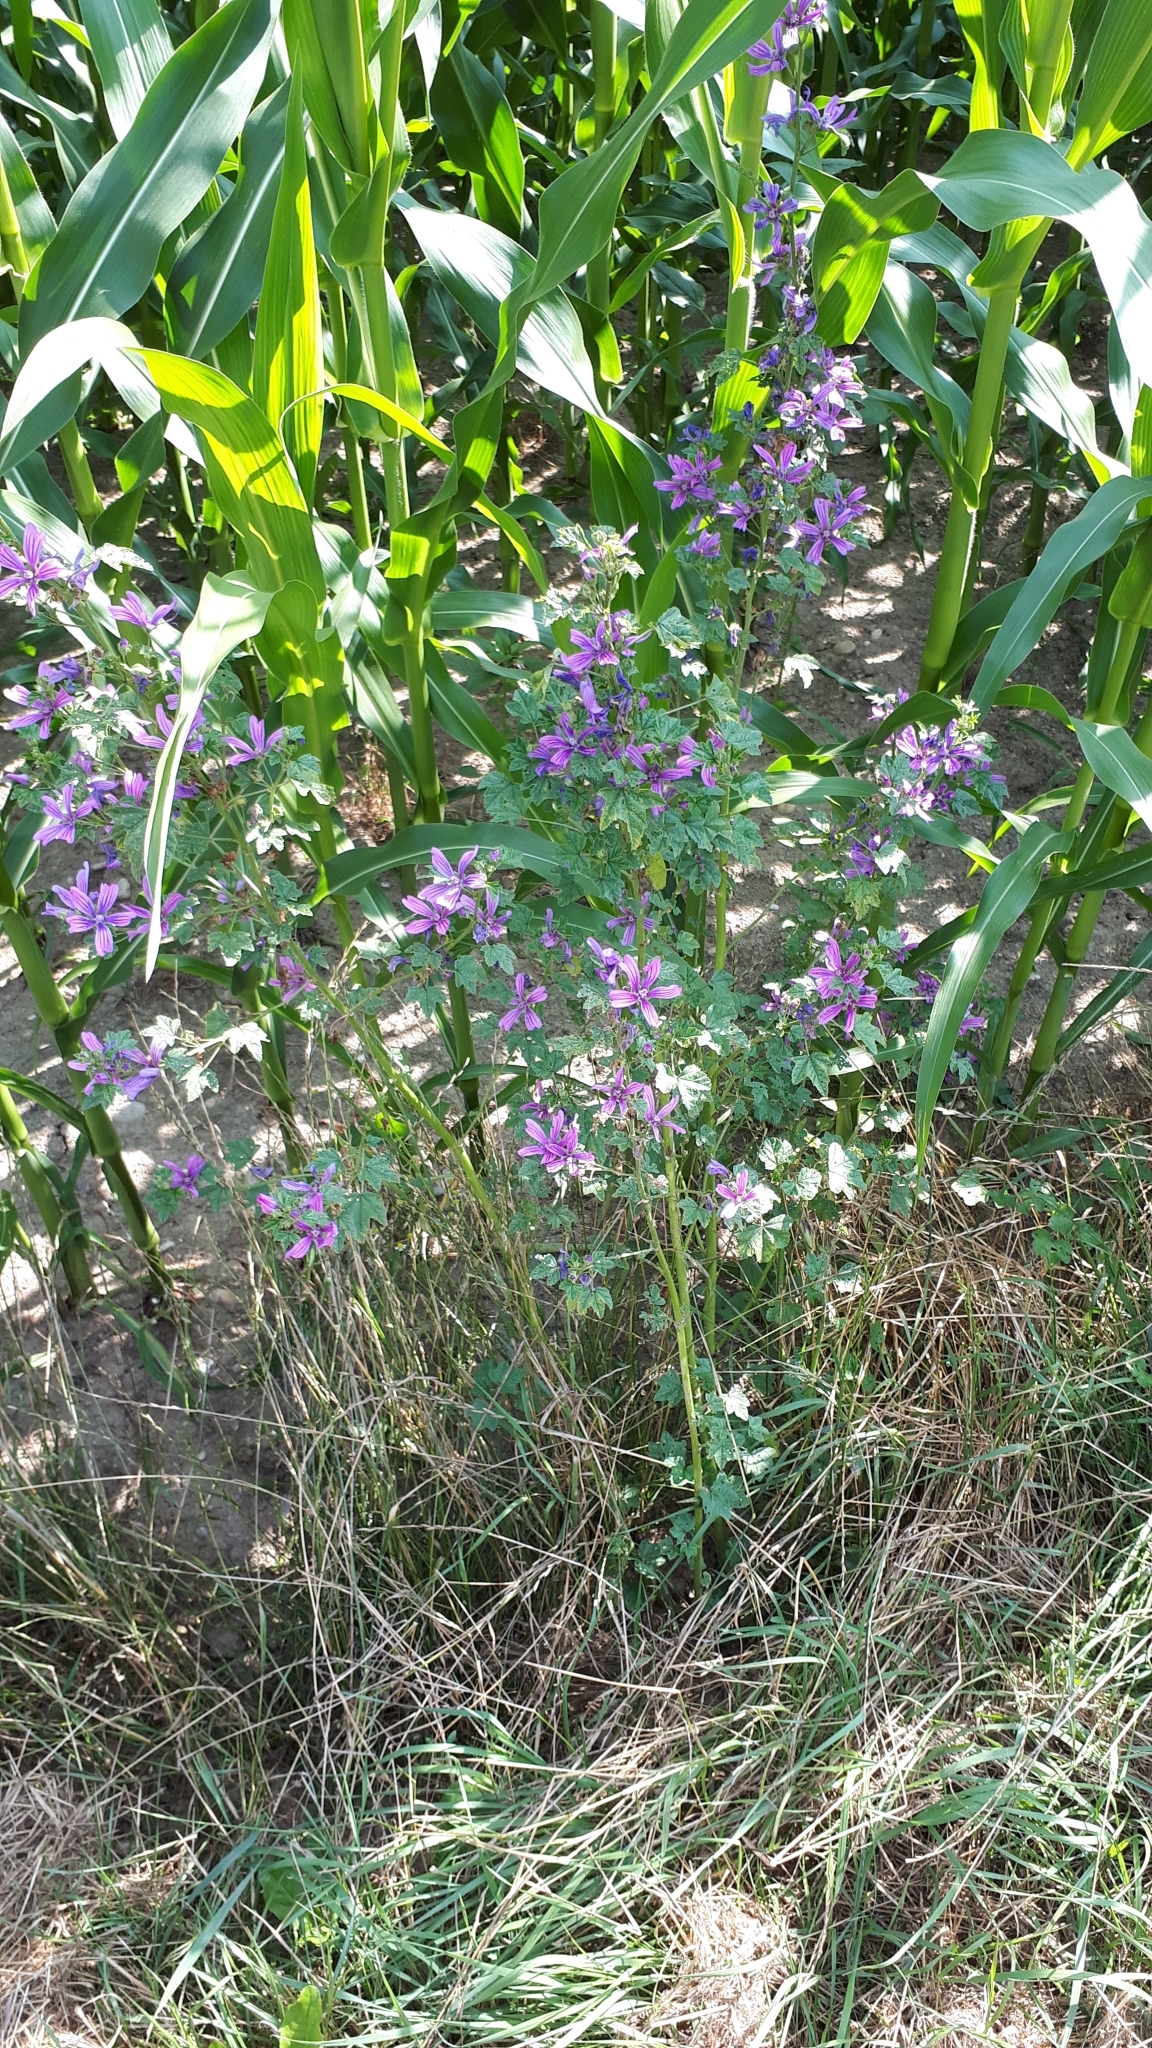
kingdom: Plantae
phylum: Tracheophyta
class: Magnoliopsida
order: Malvales
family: Malvaceae
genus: Malva
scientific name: Malva sylvestris
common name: Common mallow
